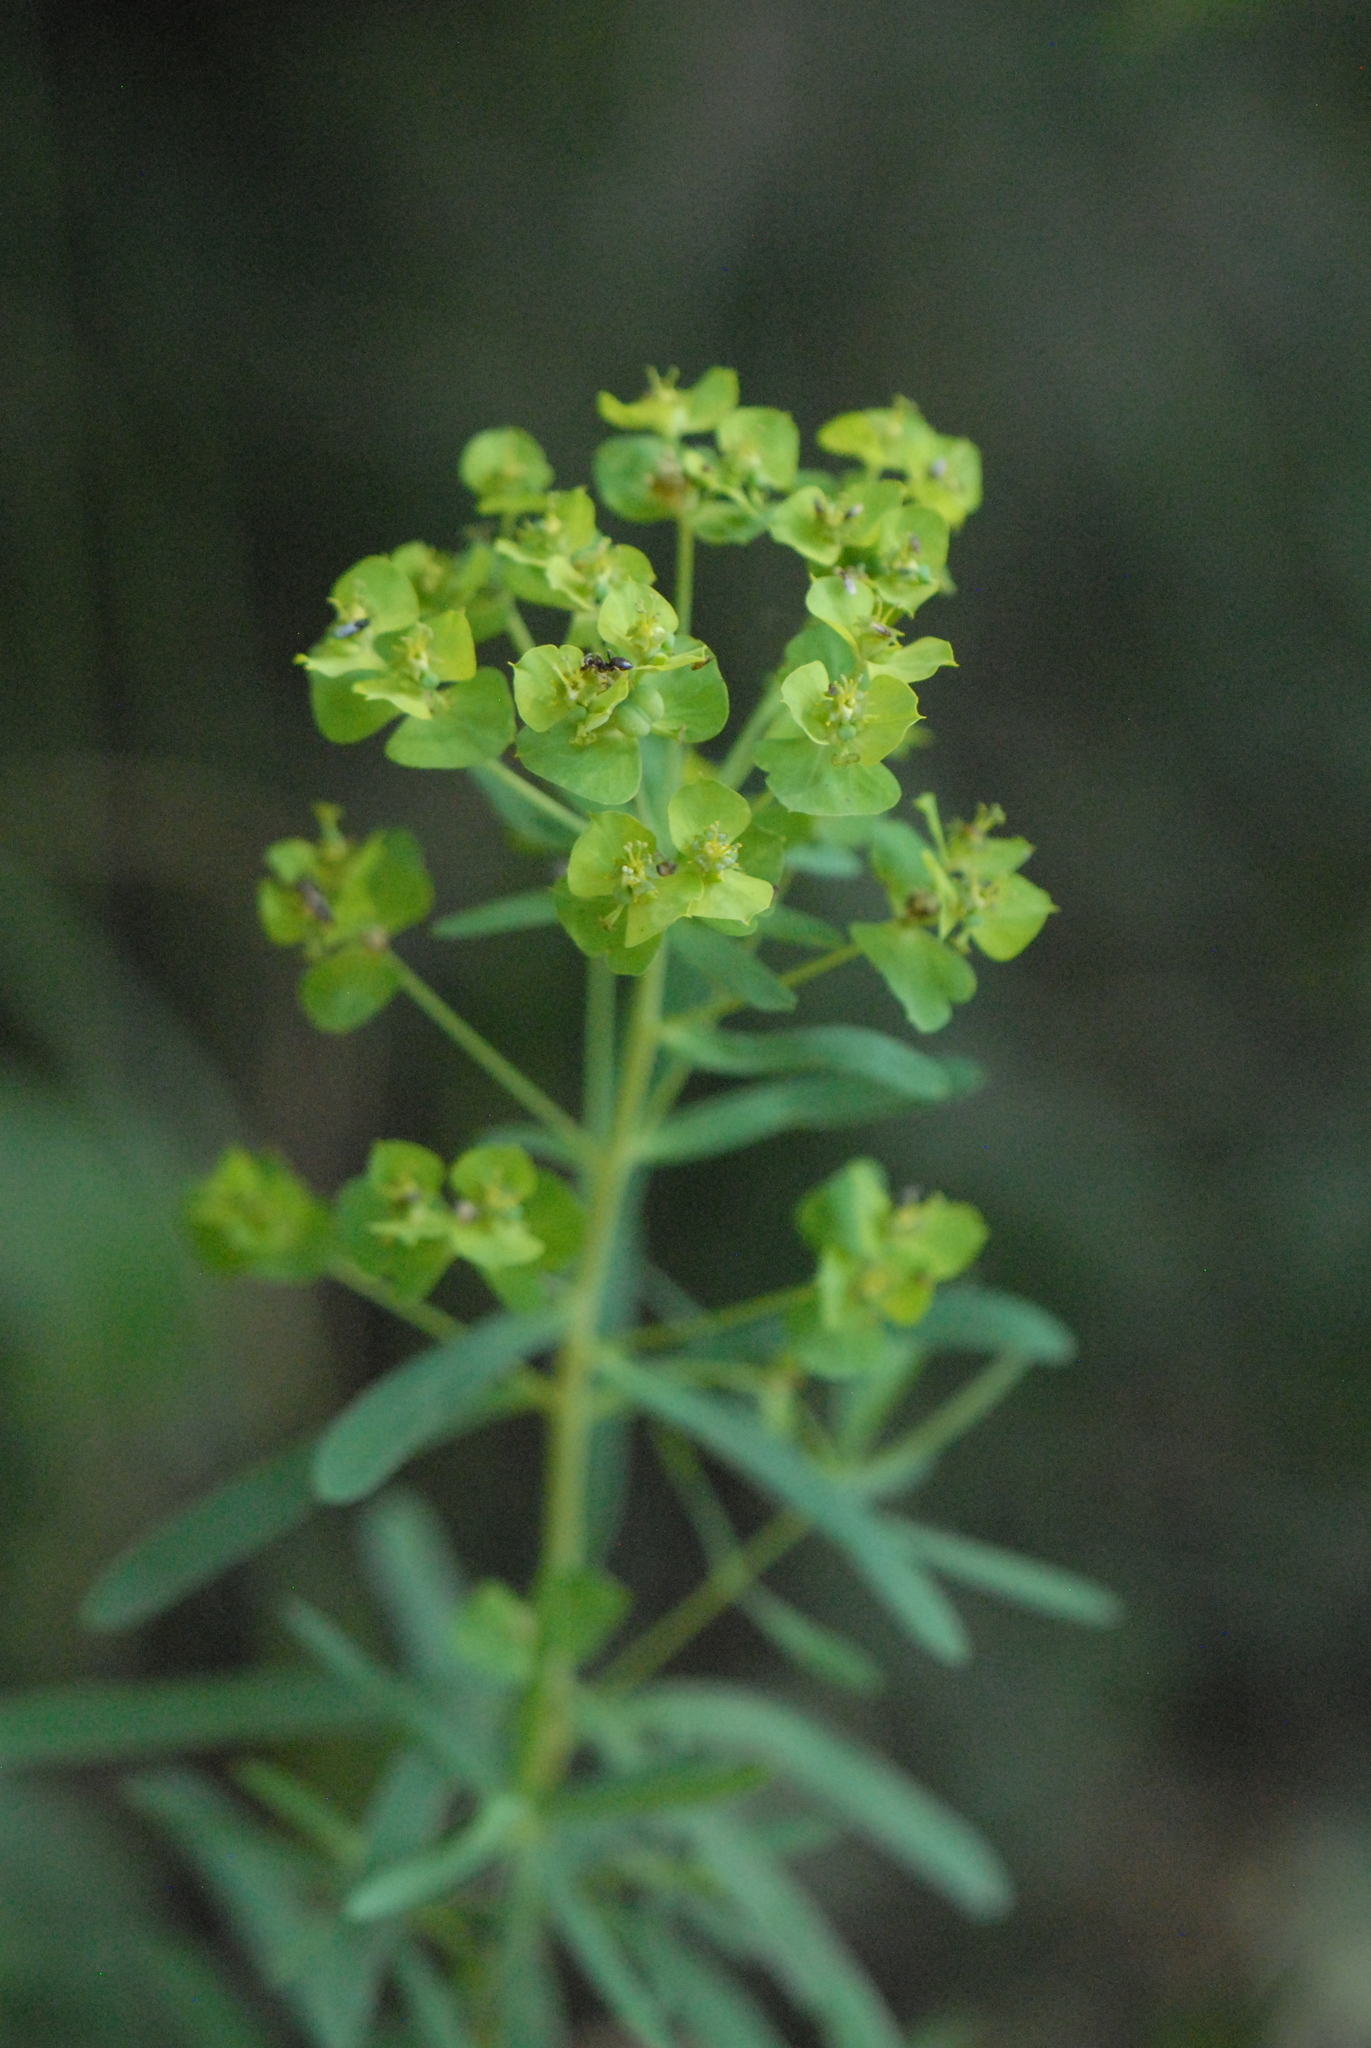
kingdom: Plantae
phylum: Tracheophyta
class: Magnoliopsida
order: Malpighiales
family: Euphorbiaceae
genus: Euphorbia
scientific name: Euphorbia virgata
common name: Leafy spurge
